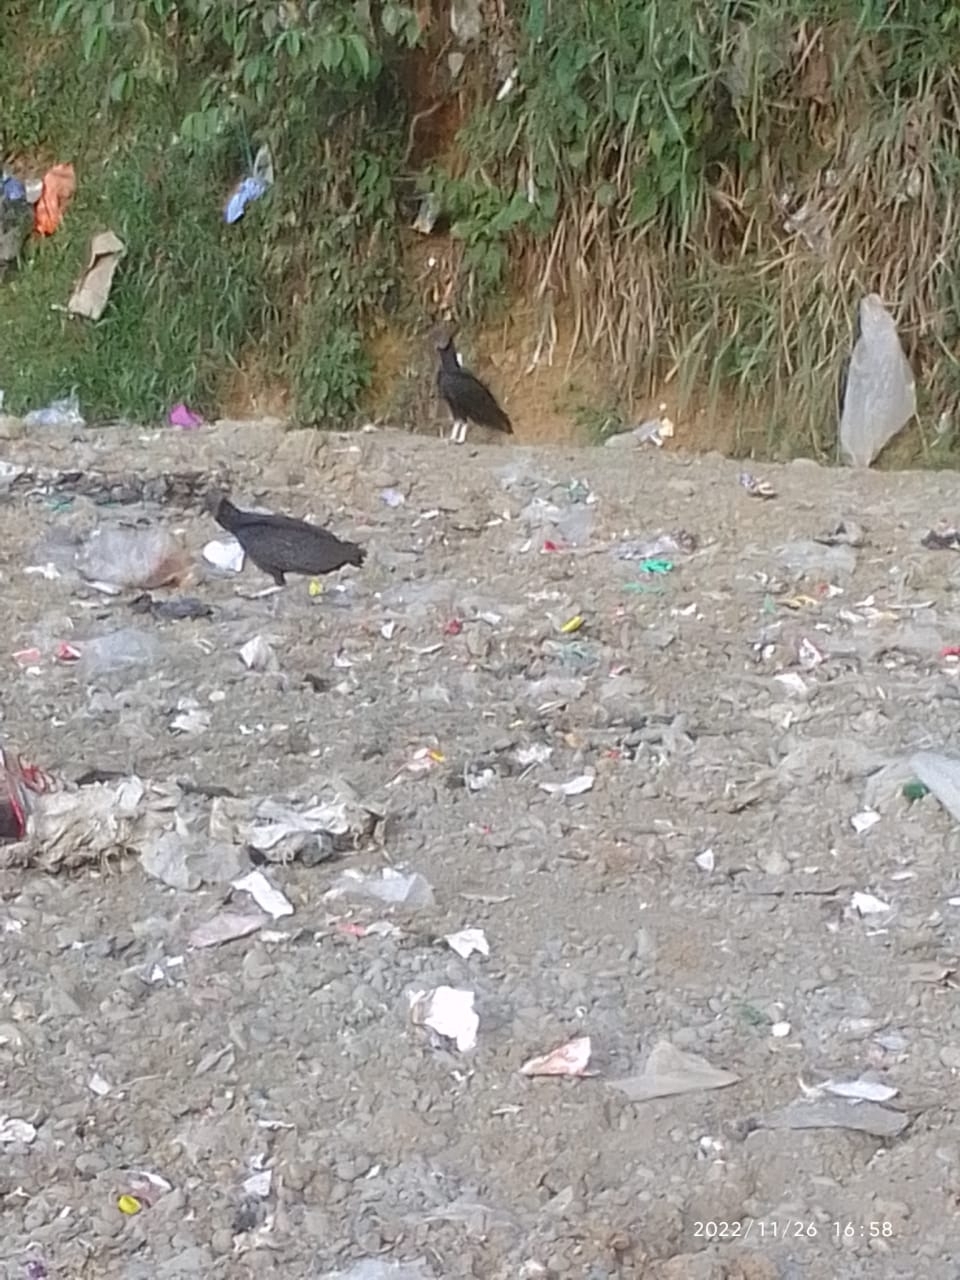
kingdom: Animalia
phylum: Chordata
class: Aves
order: Accipitriformes
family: Cathartidae
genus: Coragyps
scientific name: Coragyps atratus
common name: Black vulture
